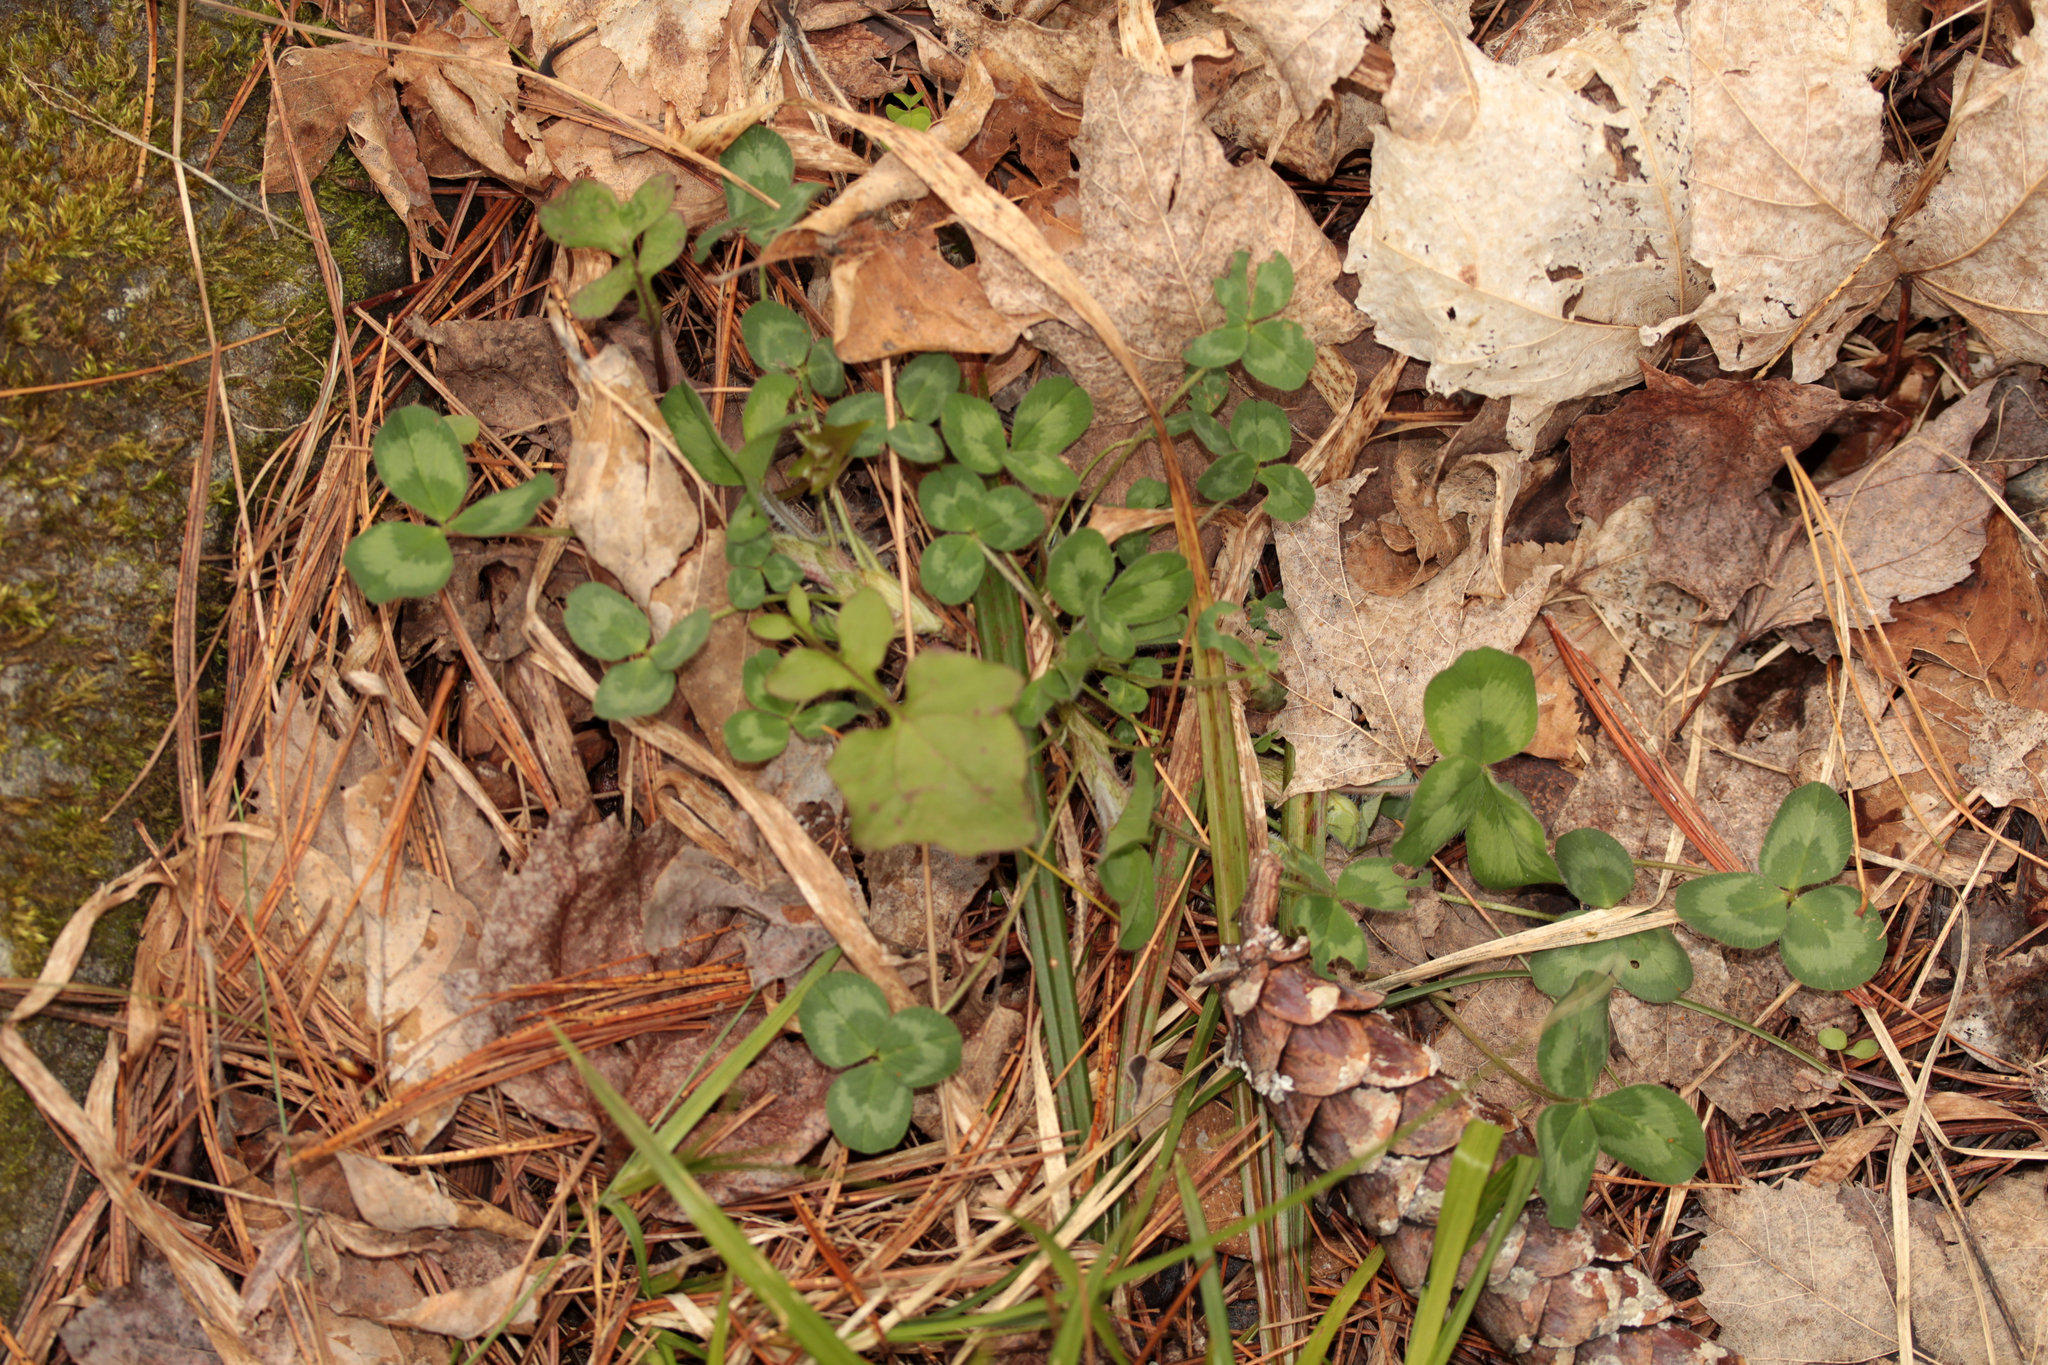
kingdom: Plantae
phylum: Tracheophyta
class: Magnoliopsida
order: Fabales
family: Fabaceae
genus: Trifolium
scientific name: Trifolium pratense
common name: Red clover
